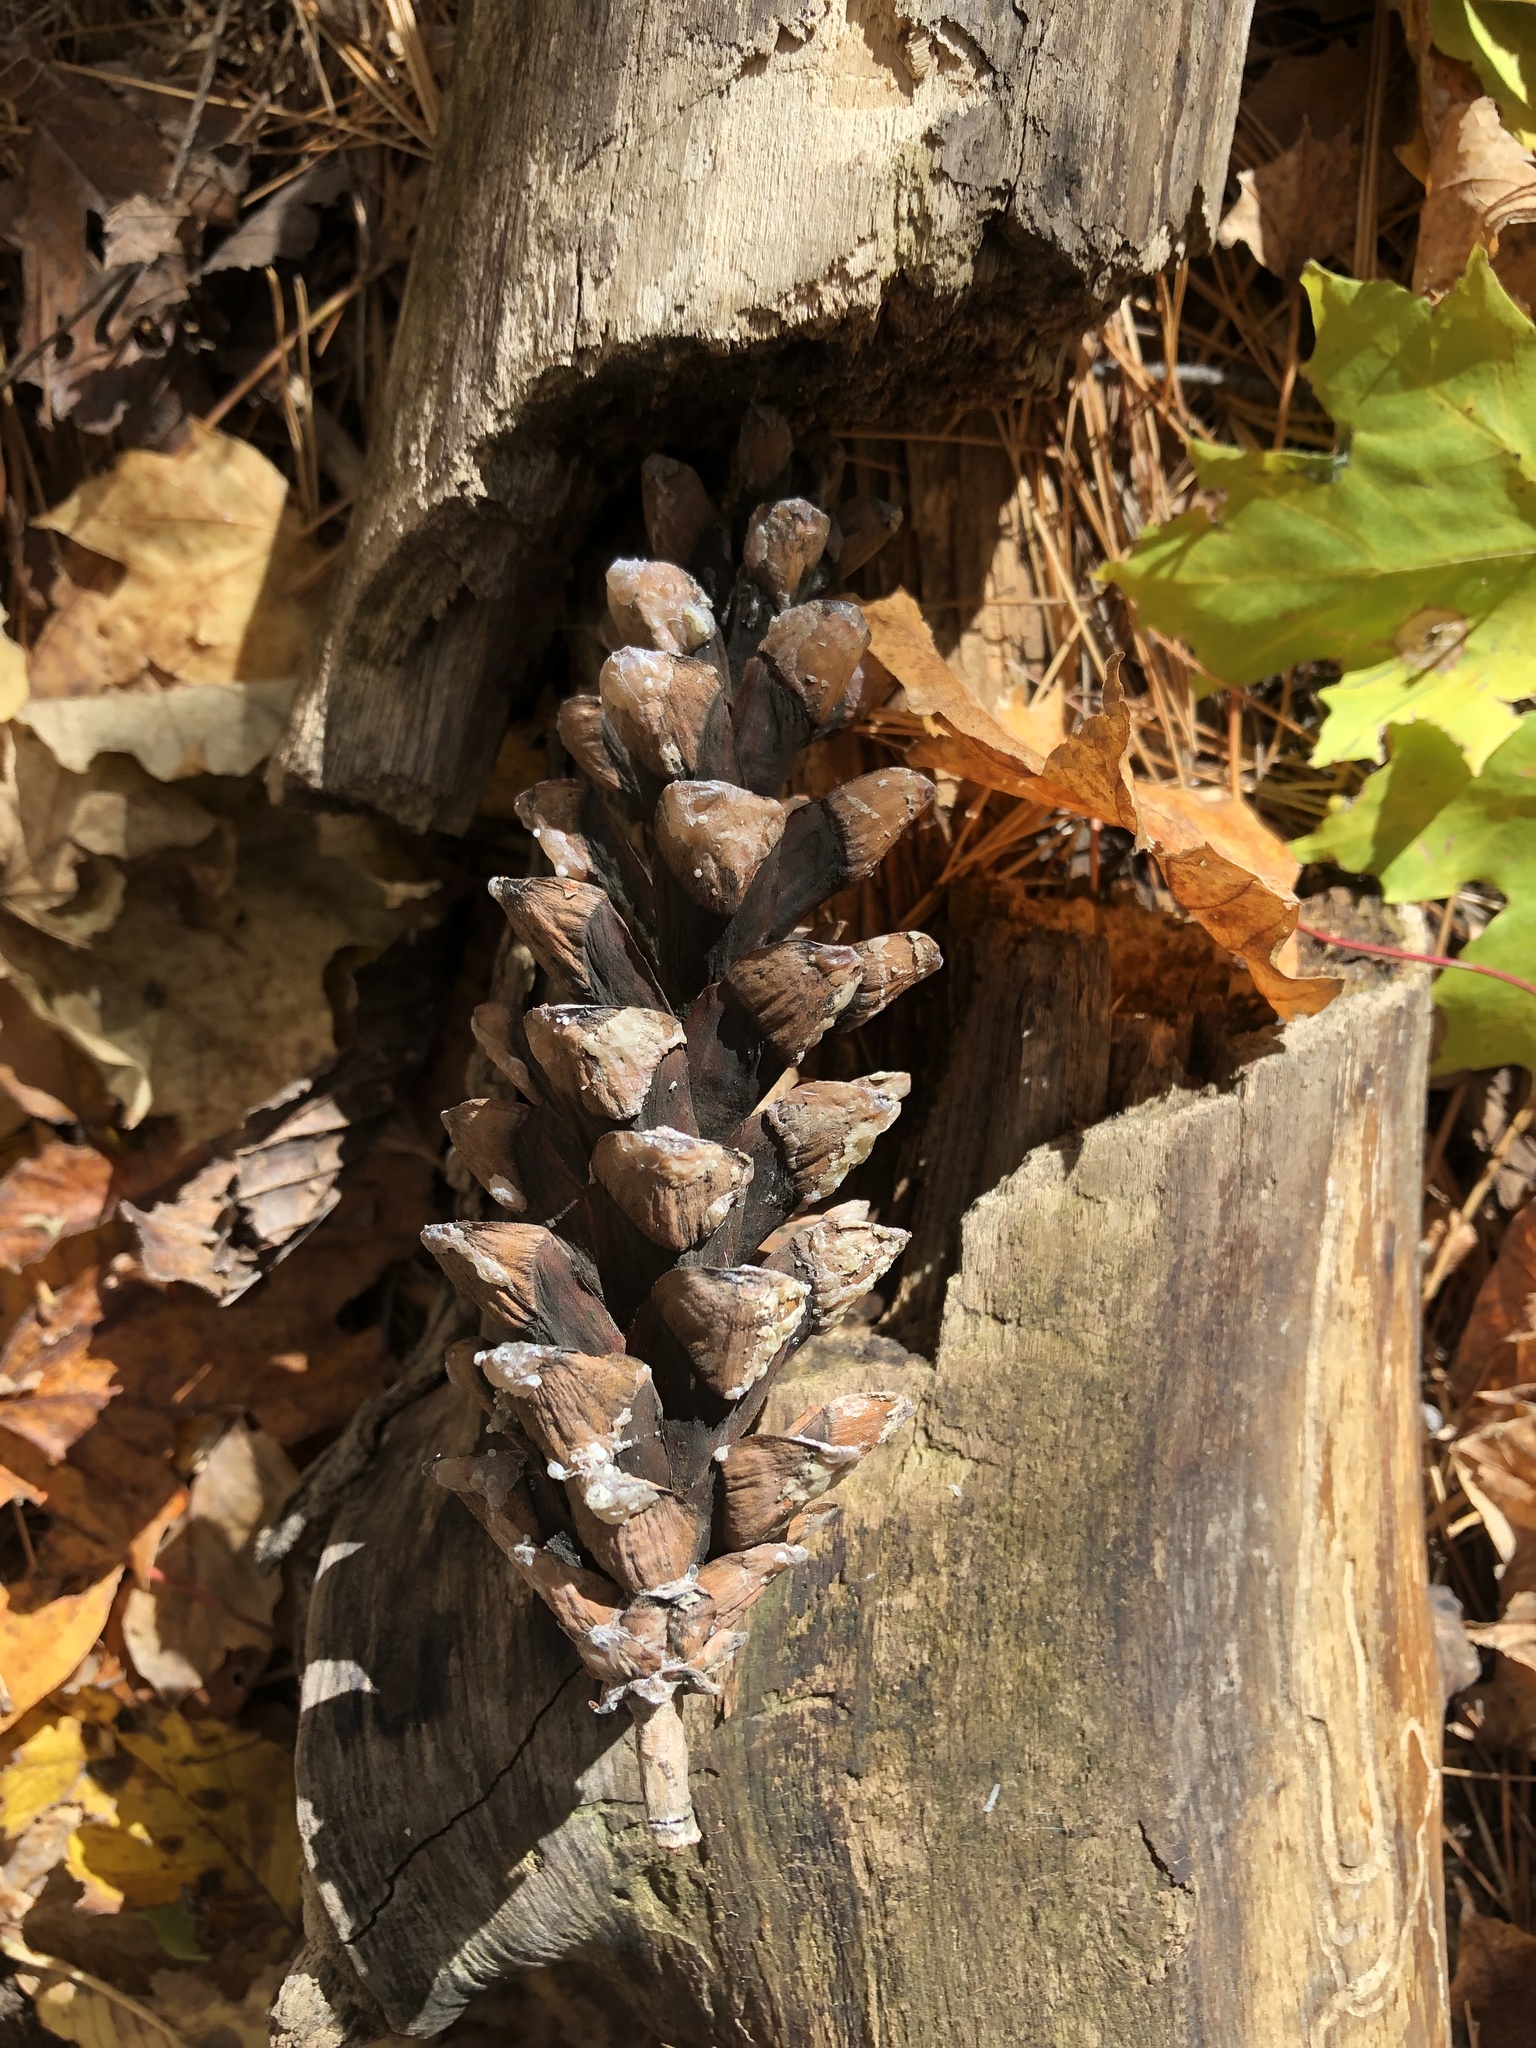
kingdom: Plantae
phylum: Tracheophyta
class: Pinopsida
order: Pinales
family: Pinaceae
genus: Pinus
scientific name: Pinus strobus
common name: Weymouth pine
